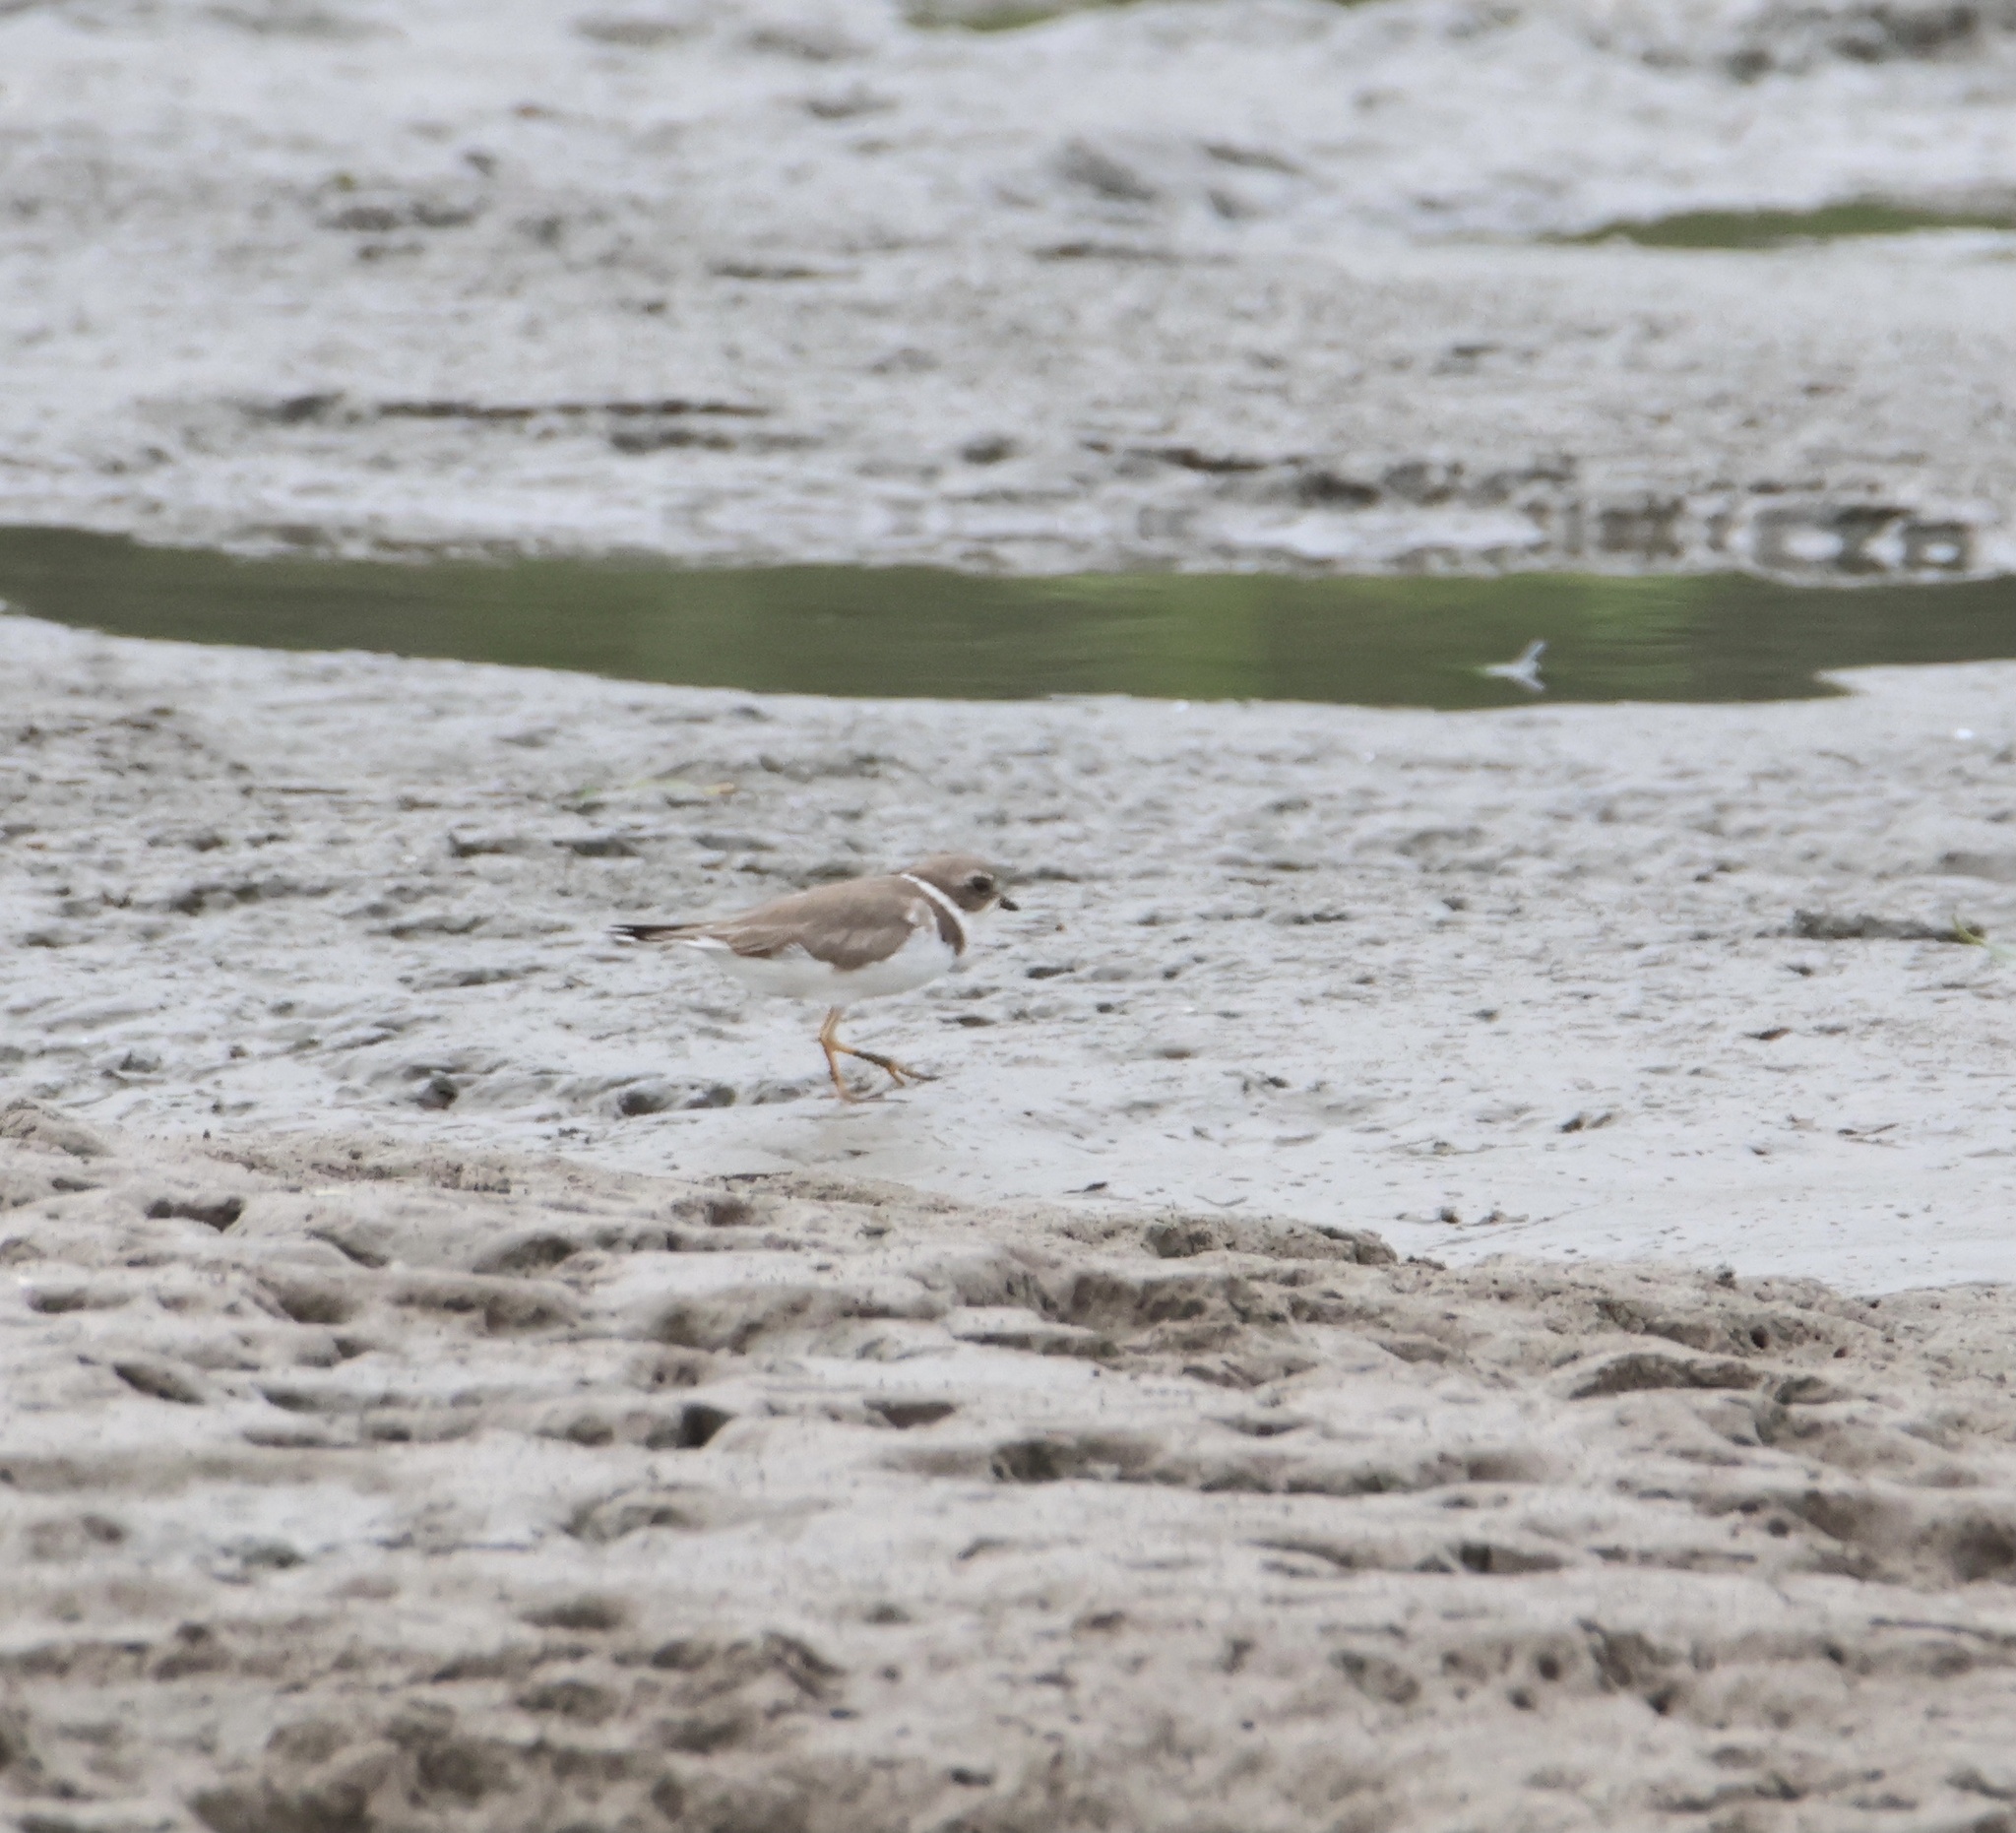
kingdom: Animalia
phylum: Chordata
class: Aves
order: Charadriiformes
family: Charadriidae
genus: Charadrius
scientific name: Charadrius semipalmatus
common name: Semipalmated plover
